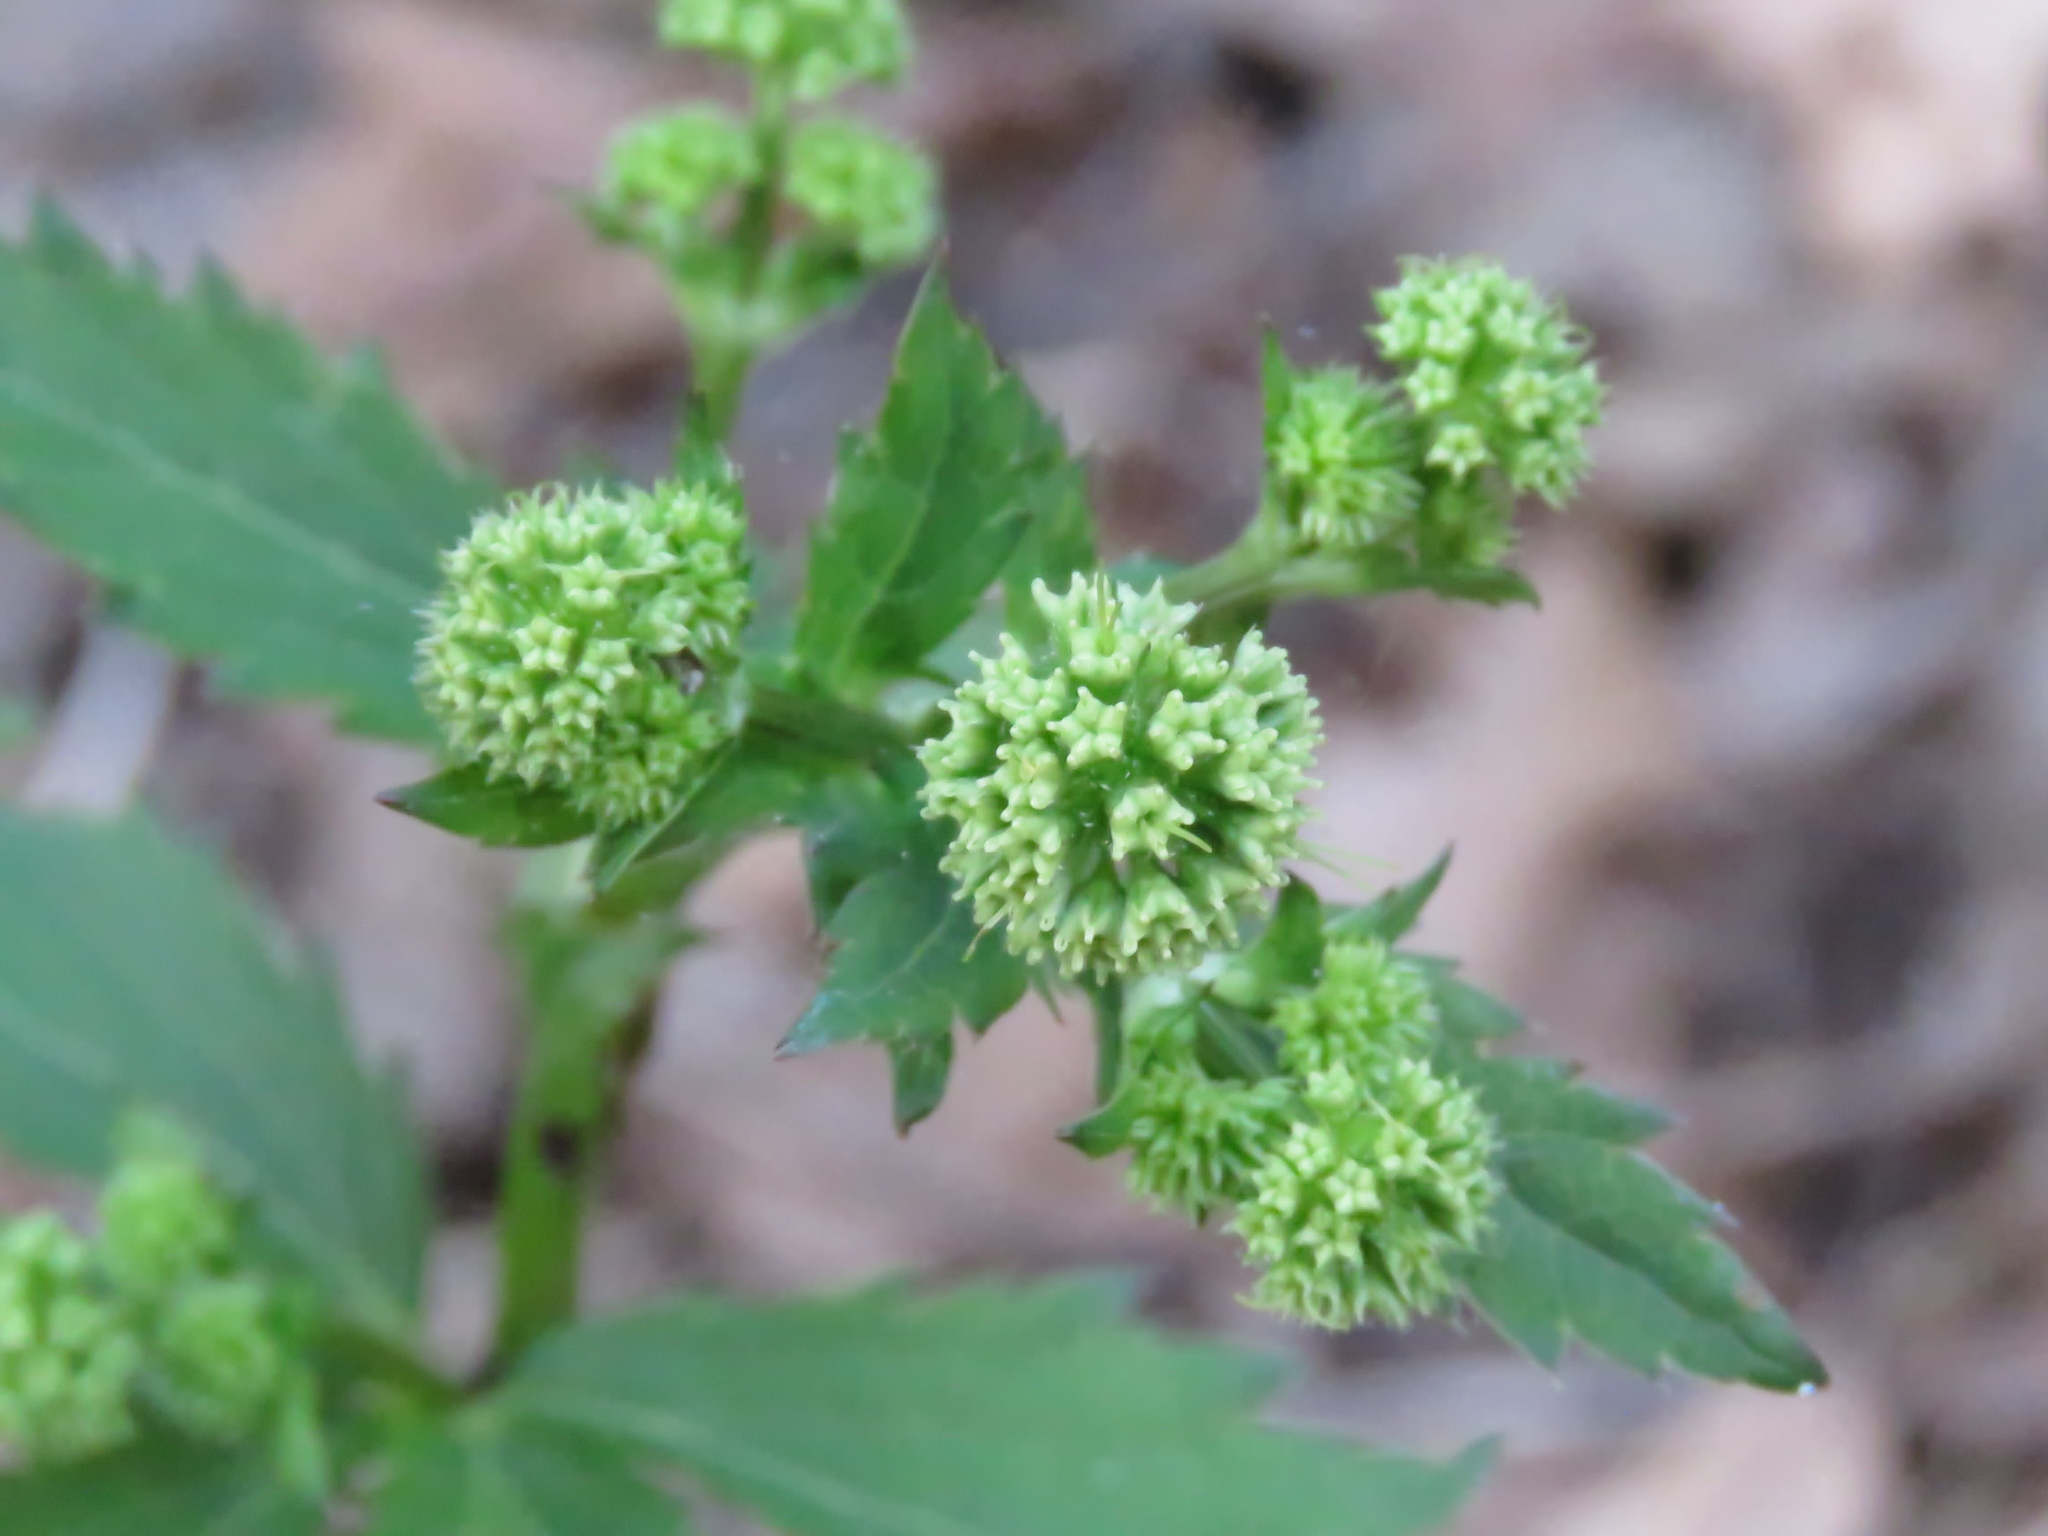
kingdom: Plantae
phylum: Tracheophyta
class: Magnoliopsida
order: Apiales
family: Apiaceae
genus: Sanicula
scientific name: Sanicula marilandica
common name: Black snakeroot
